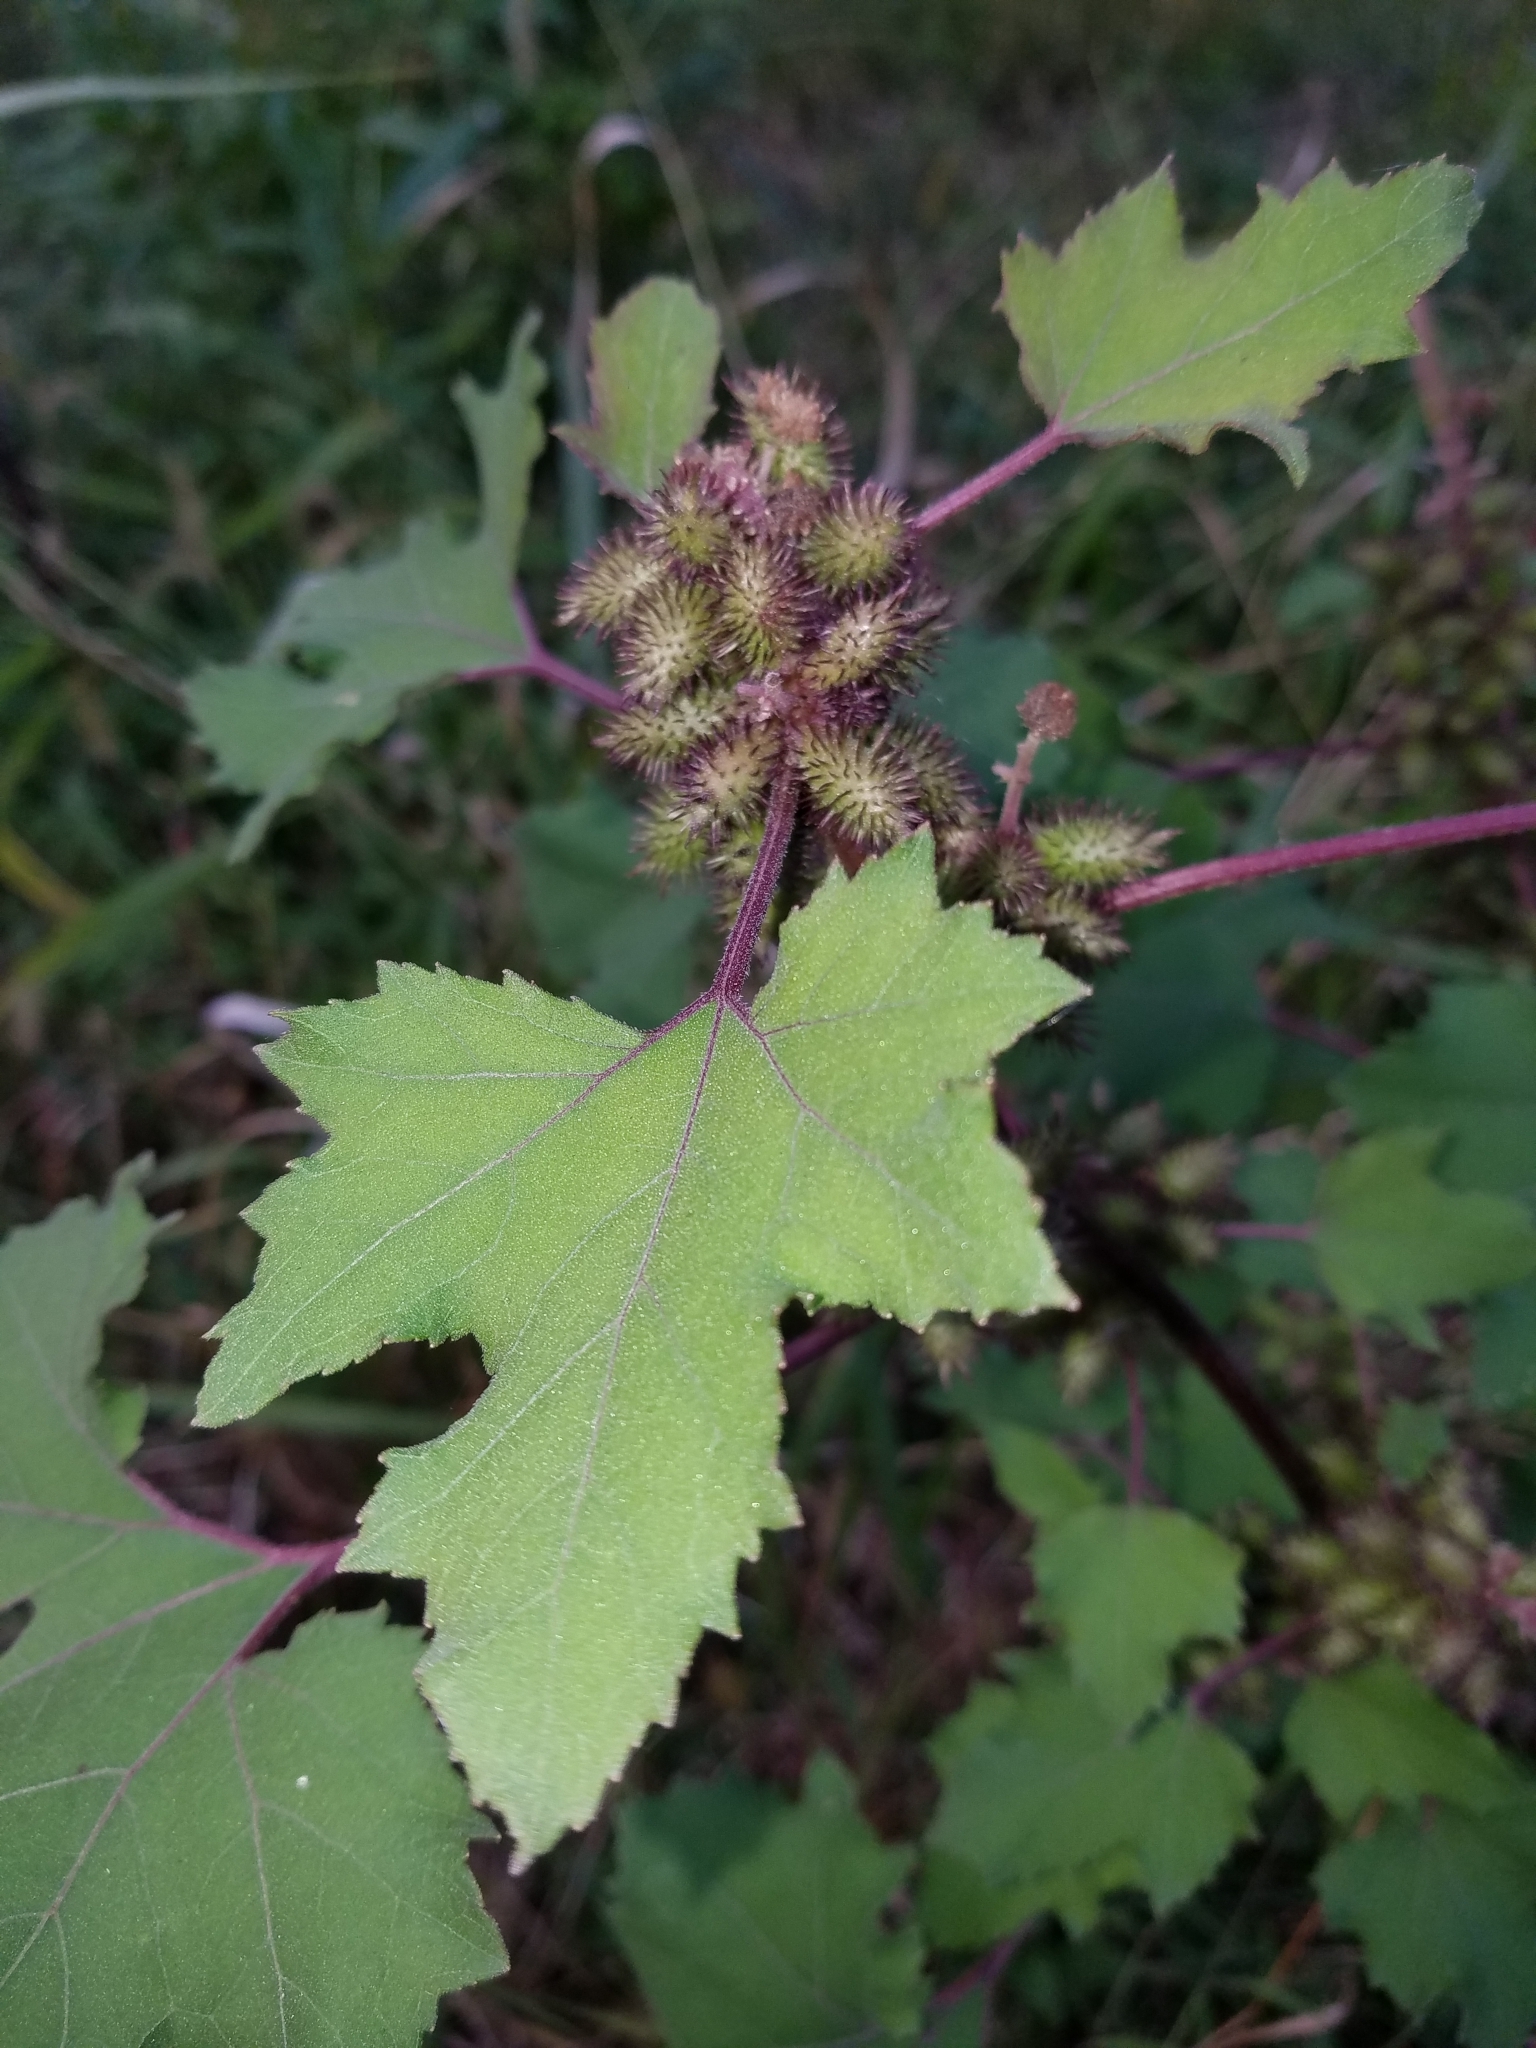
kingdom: Plantae
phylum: Tracheophyta
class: Magnoliopsida
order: Asterales
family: Asteraceae
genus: Xanthium
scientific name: Xanthium strumarium
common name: Rough cocklebur
